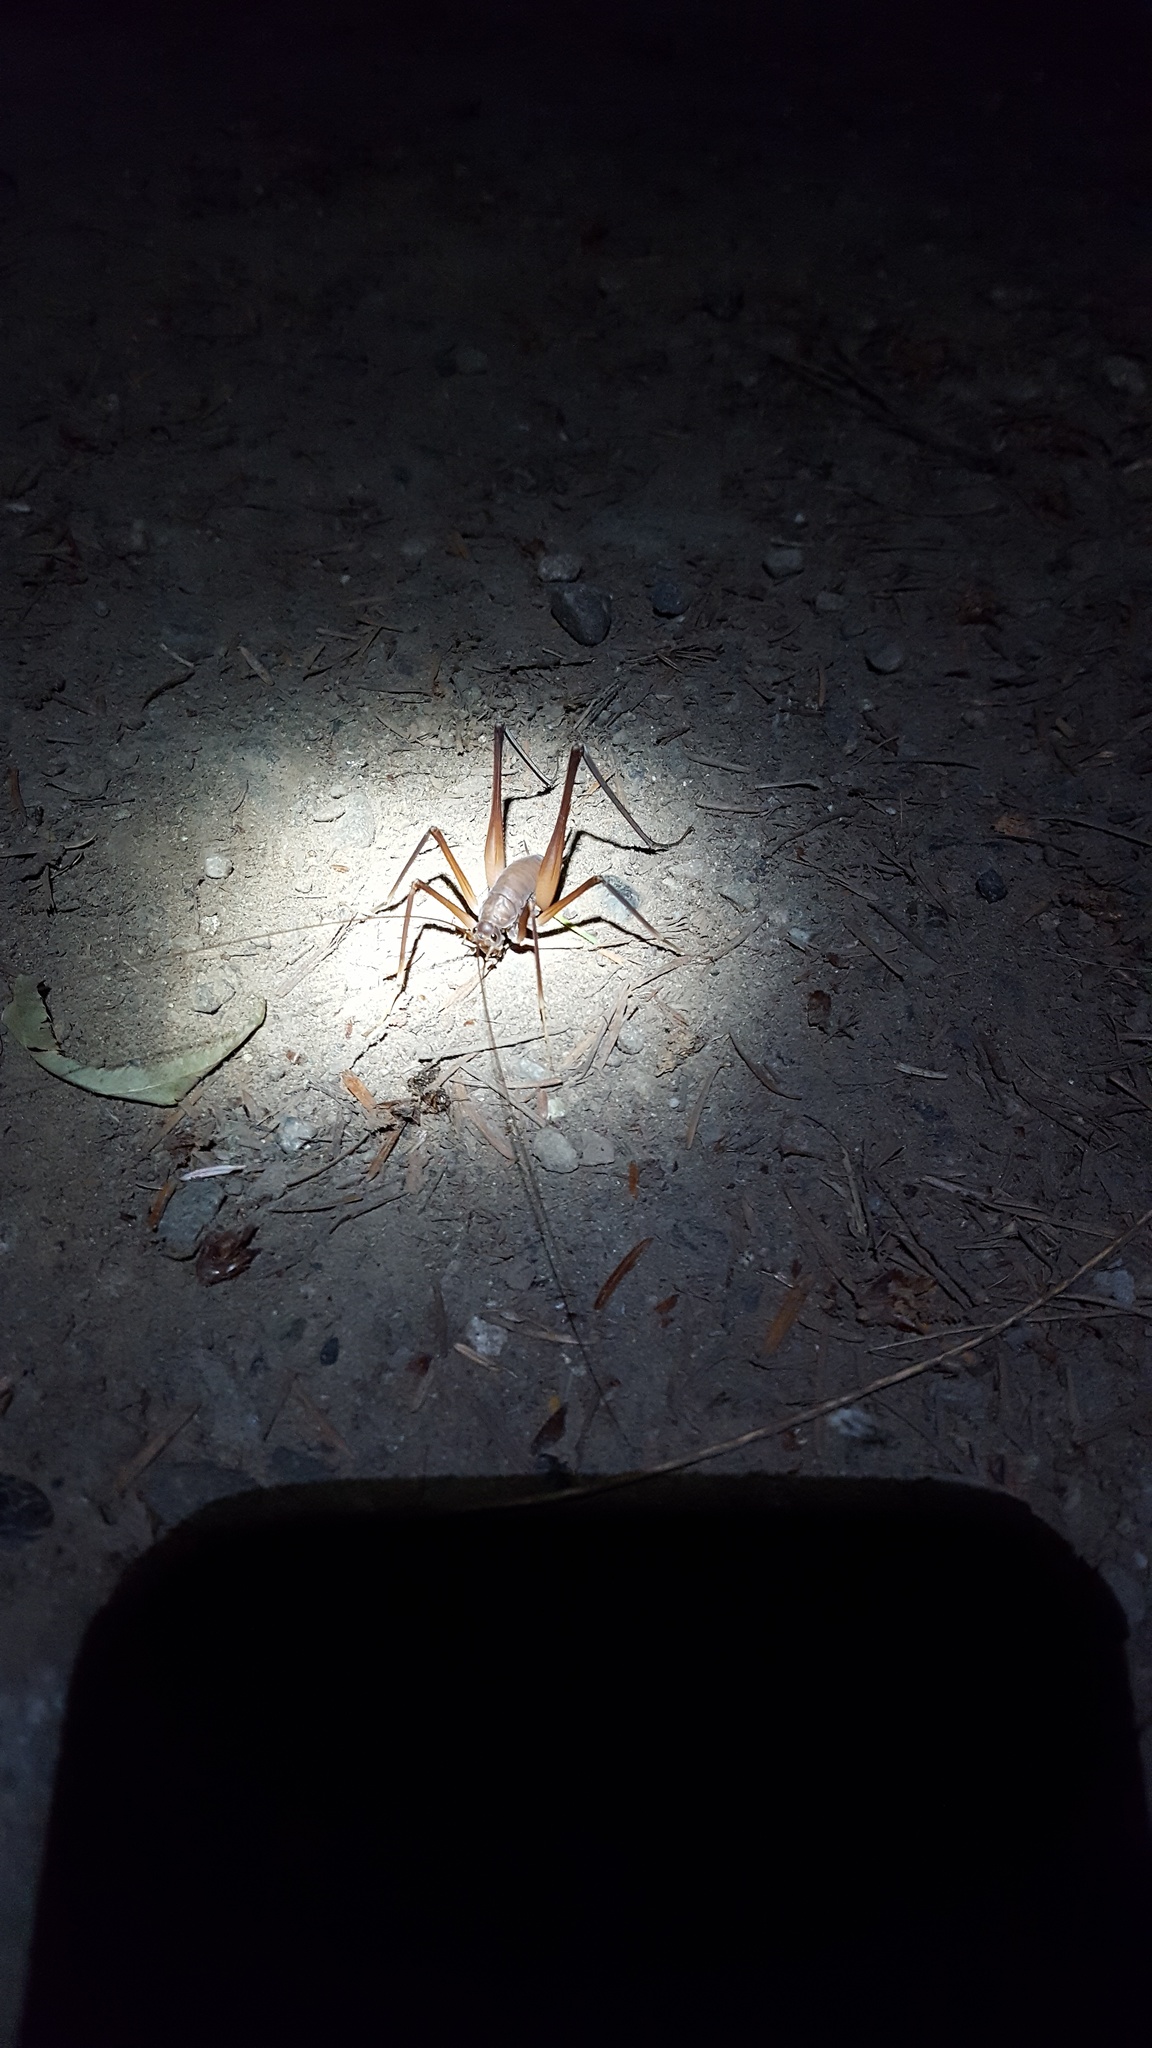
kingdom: Animalia
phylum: Arthropoda
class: Insecta
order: Orthoptera
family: Rhaphidophoridae
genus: Tropidischia
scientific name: Tropidischia xanthostoma
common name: Square-legged camel cricket
